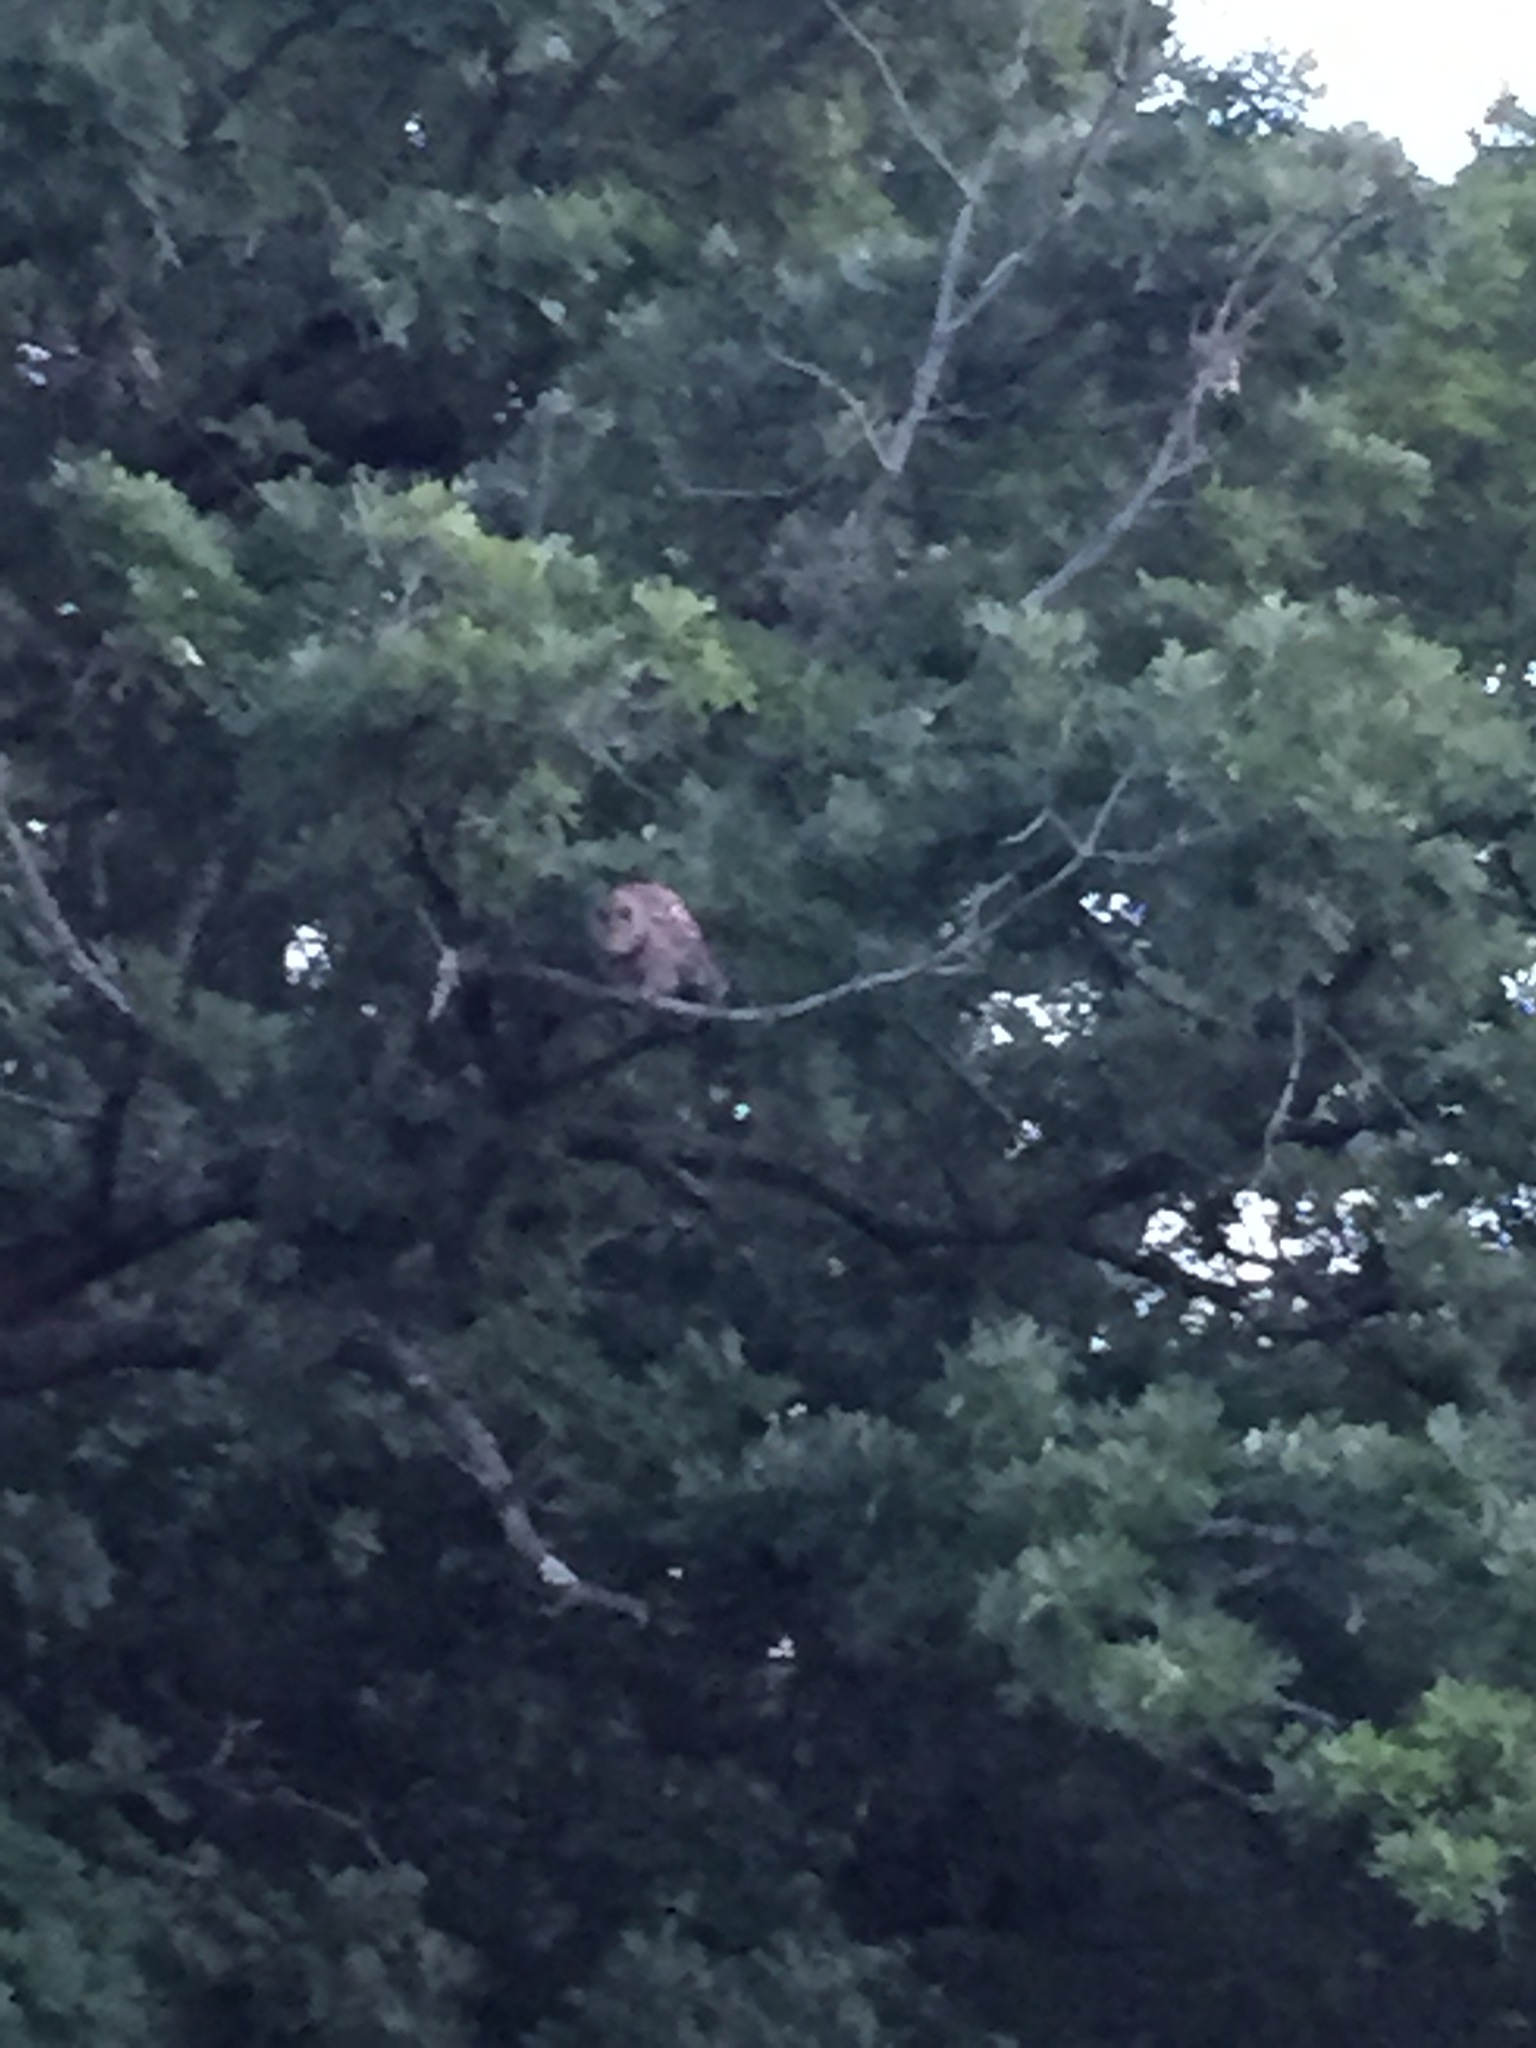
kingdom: Animalia
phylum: Chordata
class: Aves
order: Strigiformes
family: Strigidae
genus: Strix
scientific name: Strix varia
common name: Barred owl
